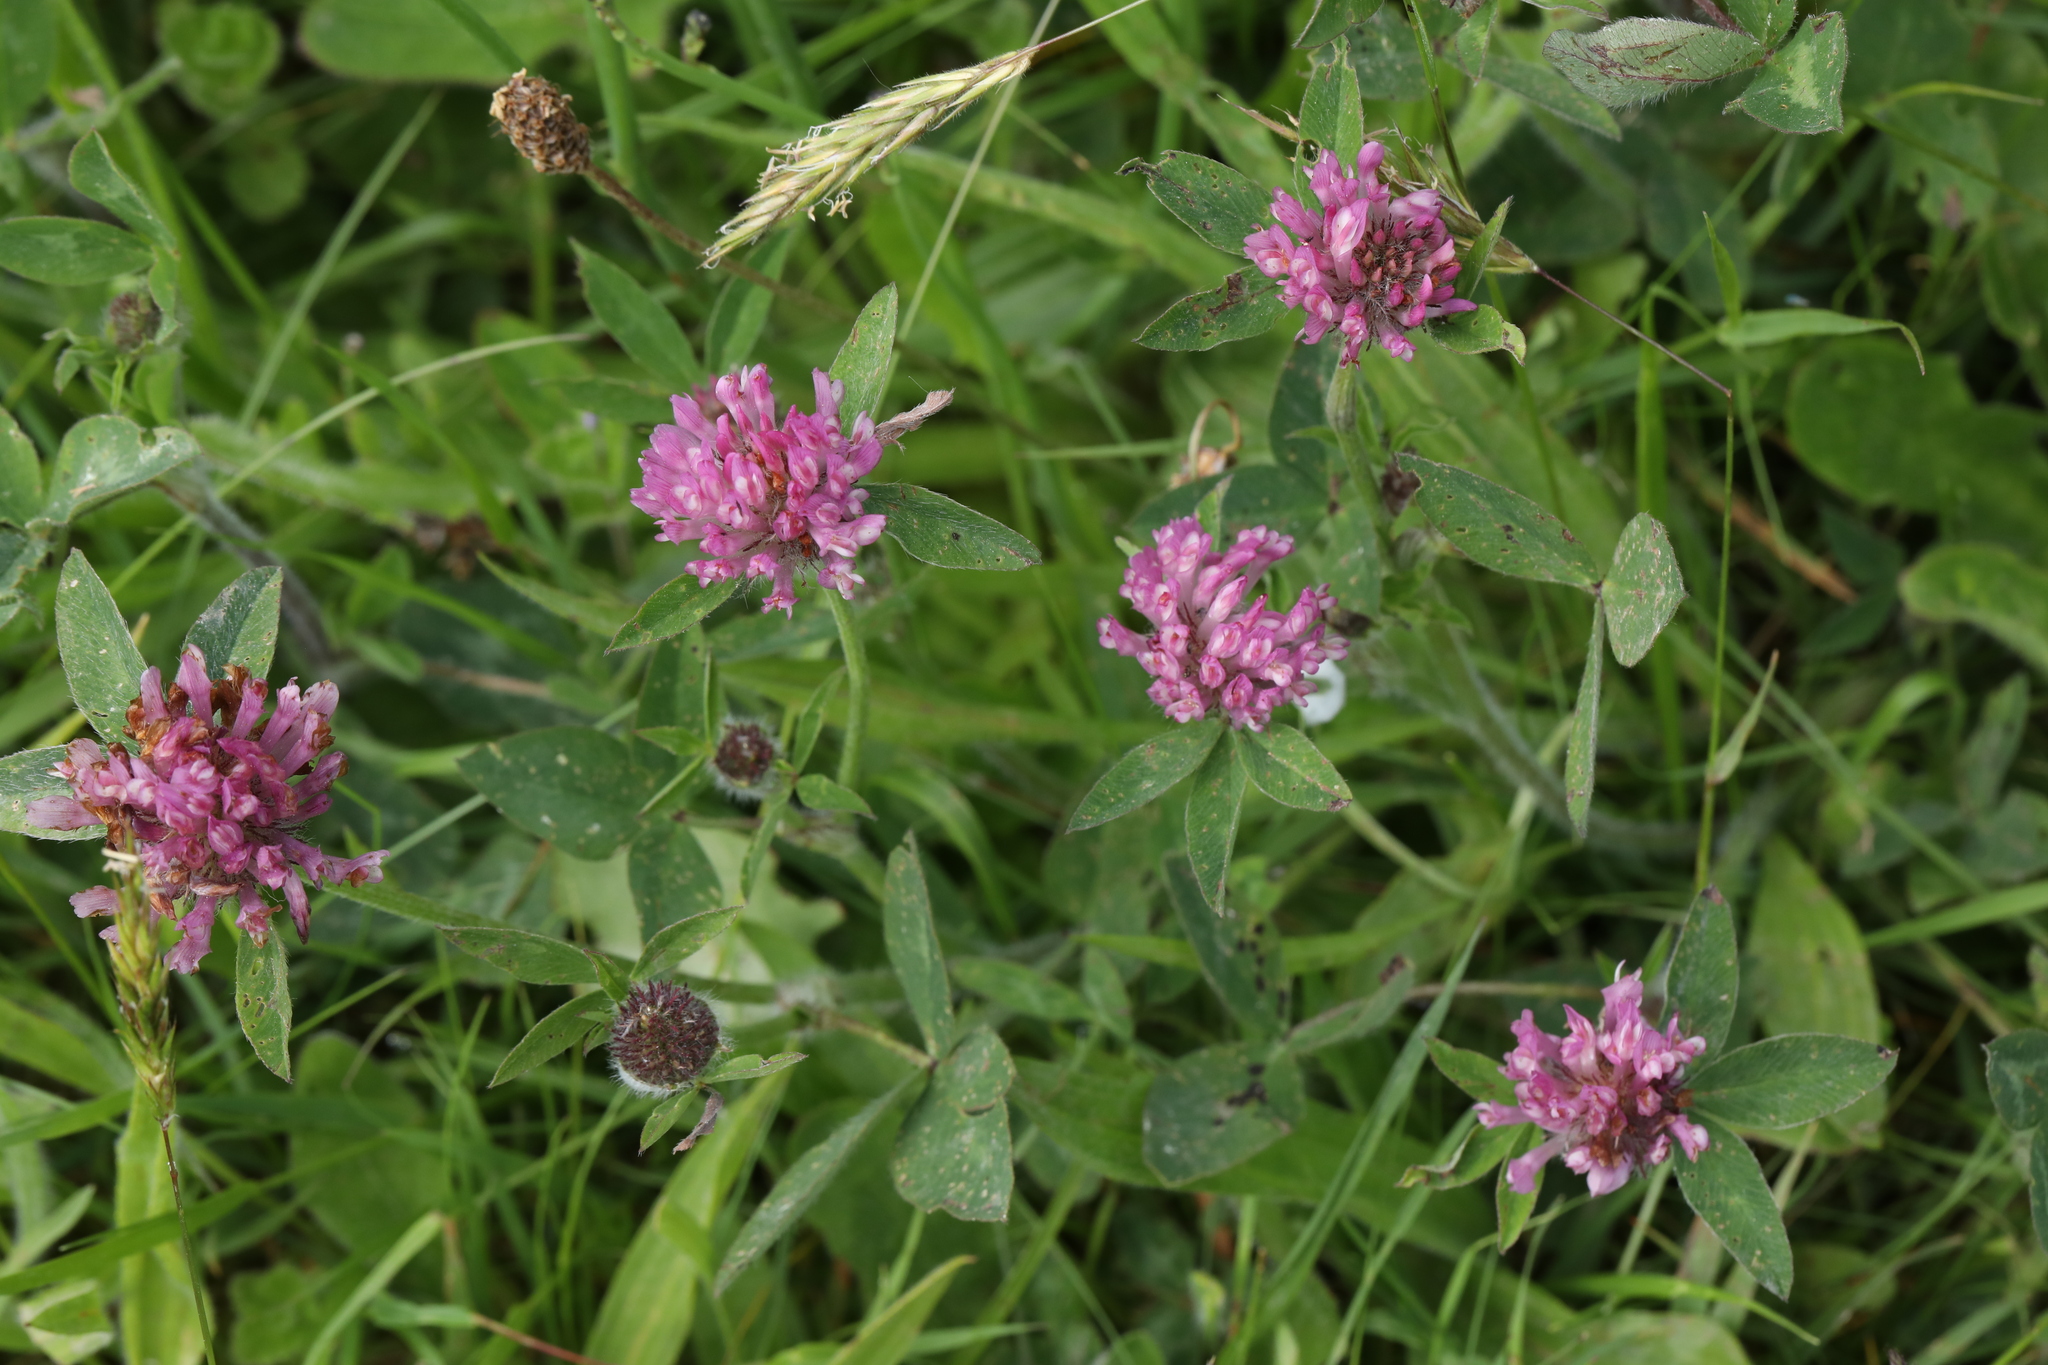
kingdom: Plantae
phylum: Tracheophyta
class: Magnoliopsida
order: Fabales
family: Fabaceae
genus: Trifolium
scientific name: Trifolium pratense
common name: Red clover
